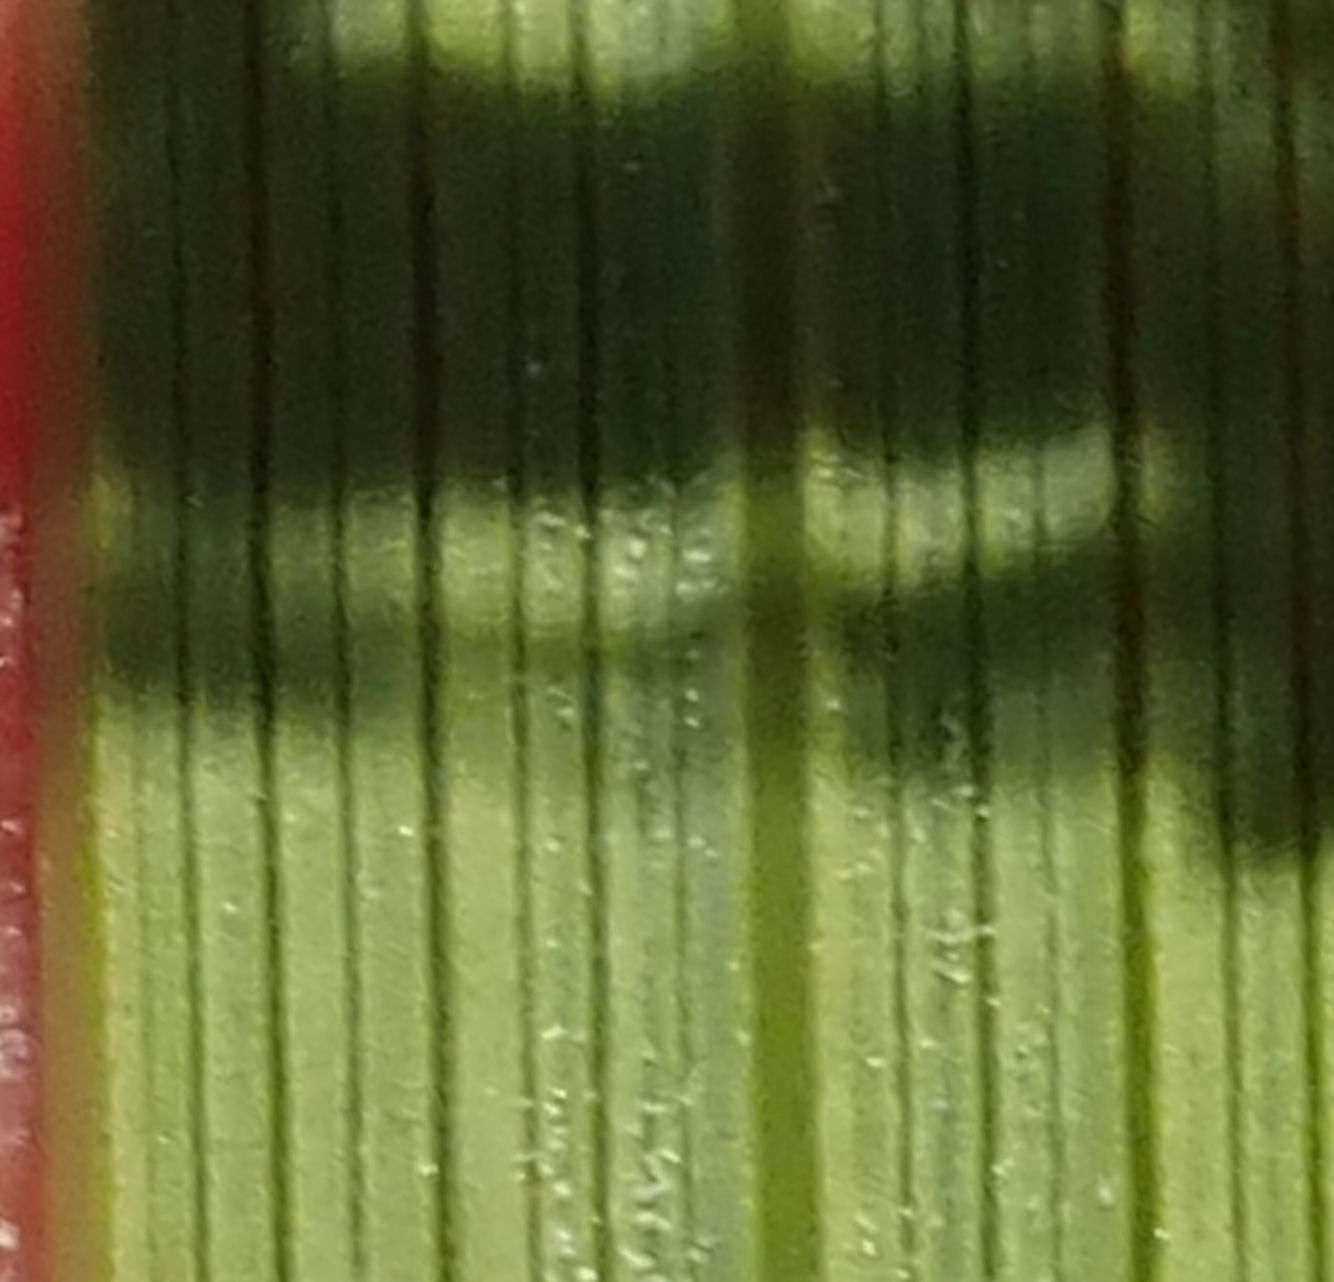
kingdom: Plantae
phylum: Tracheophyta
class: Liliopsida
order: Asparagales
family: Iridaceae
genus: Gladiolus
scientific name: Gladiolus crassifolius
